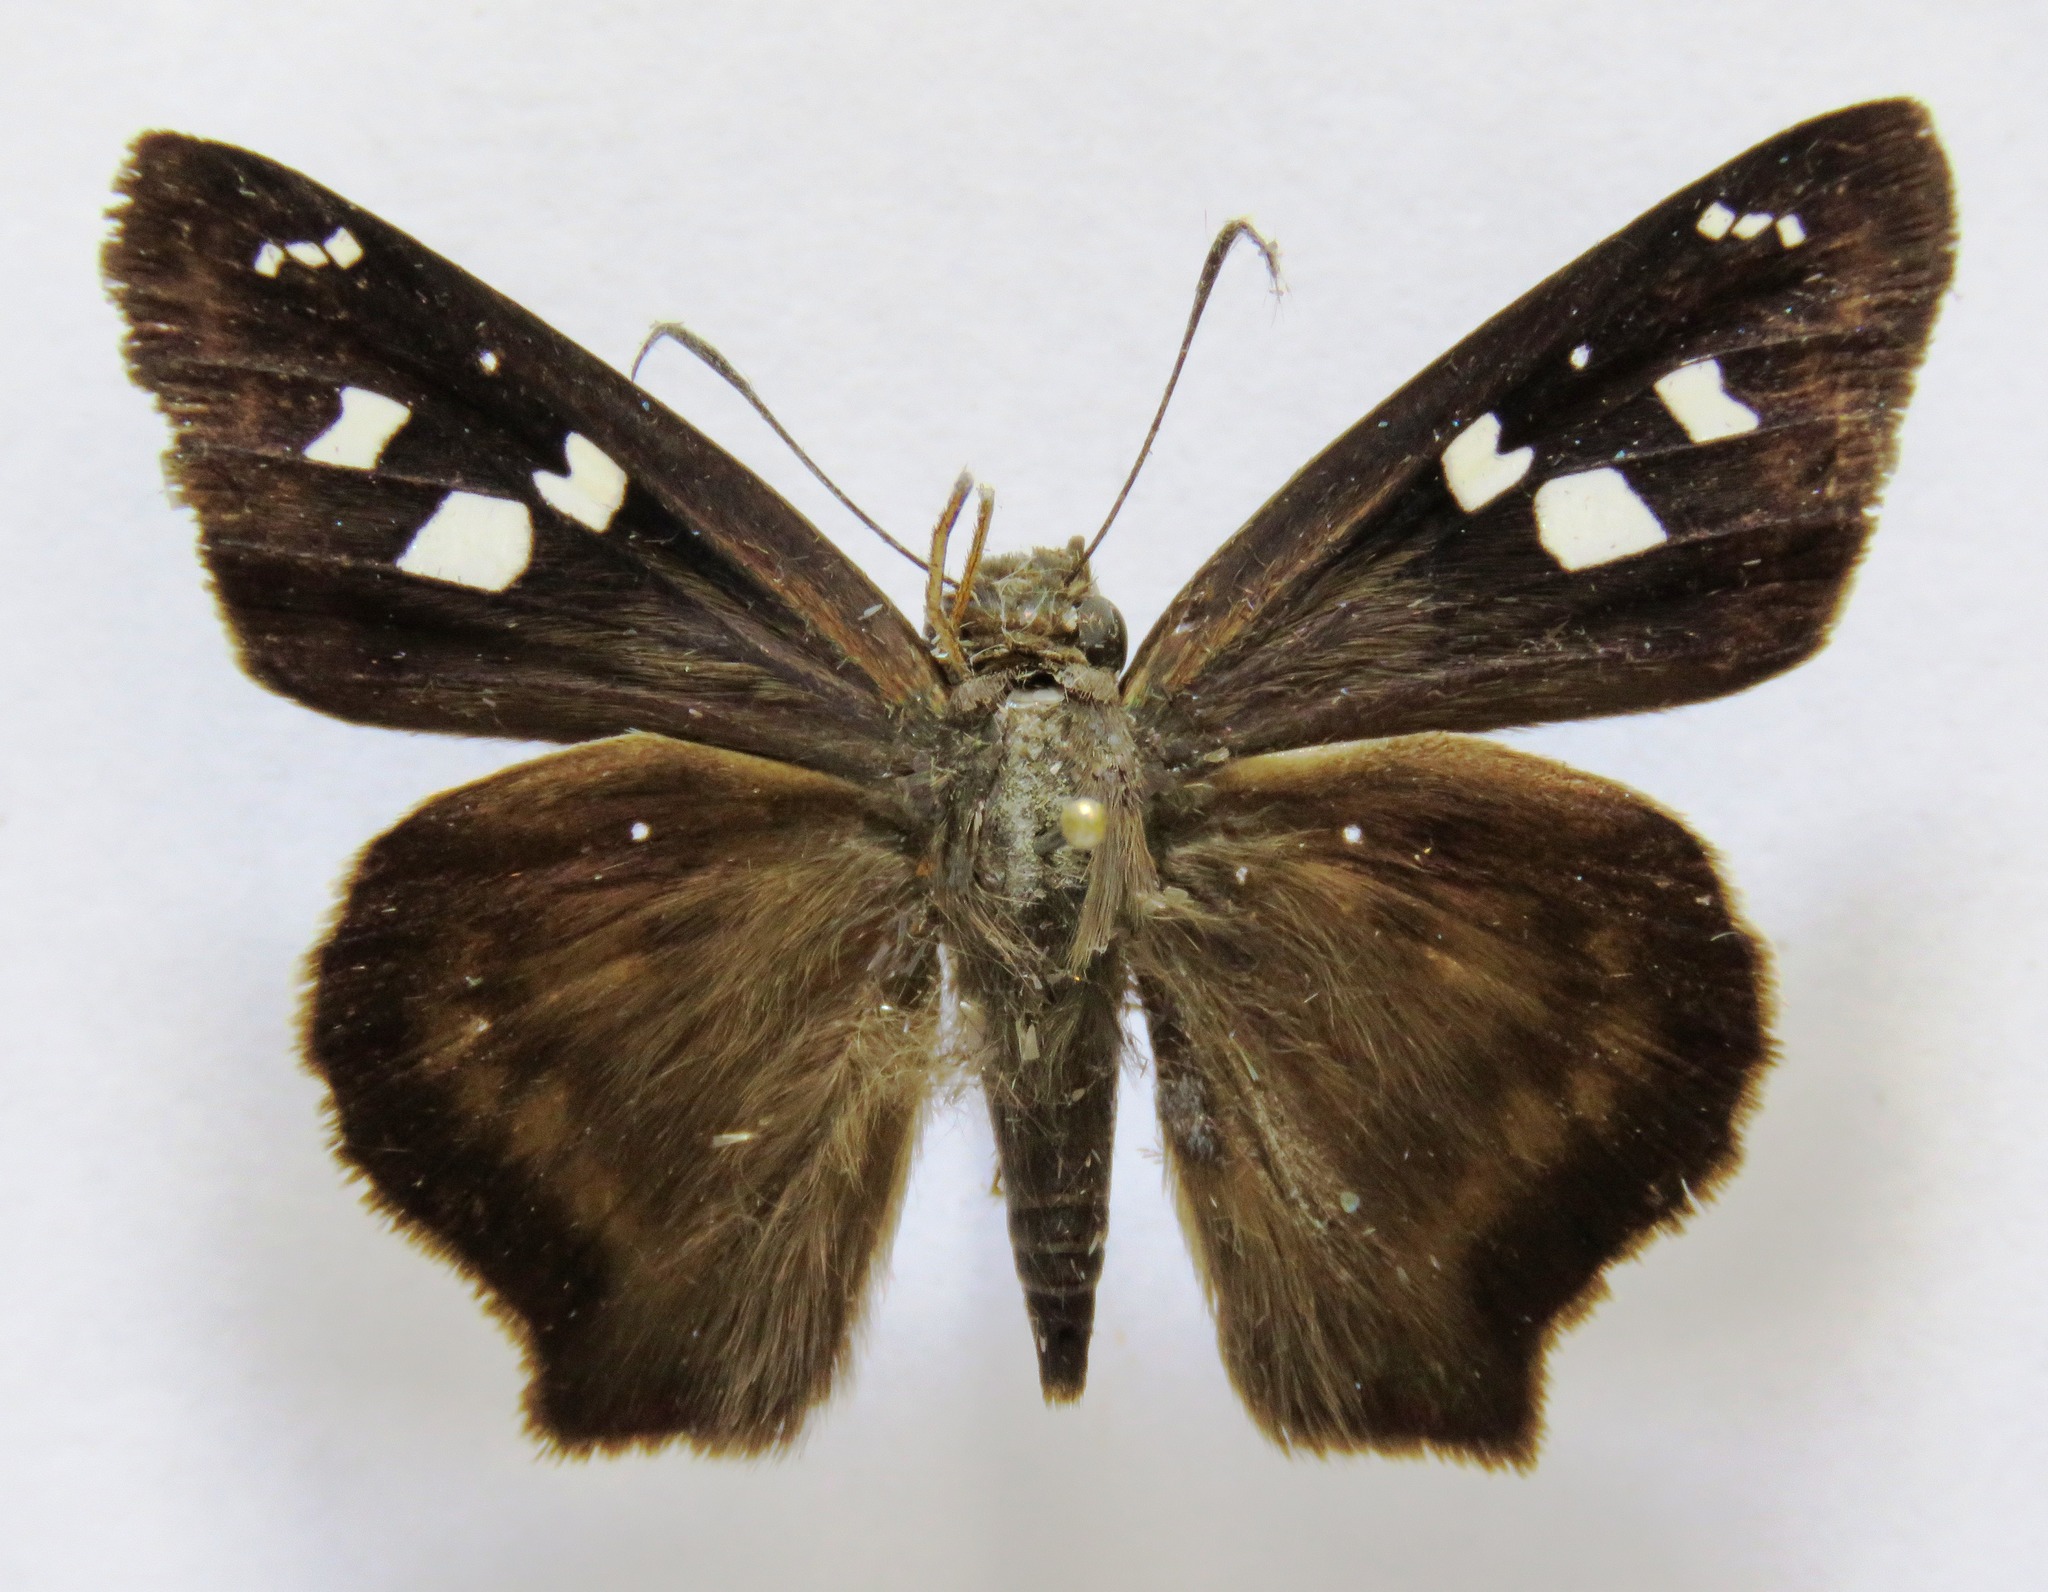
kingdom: Animalia
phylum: Arthropoda
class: Insecta
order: Lepidoptera
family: Hesperiidae
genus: Polygonus
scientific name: Polygonus leo
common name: Hammoch skipper
